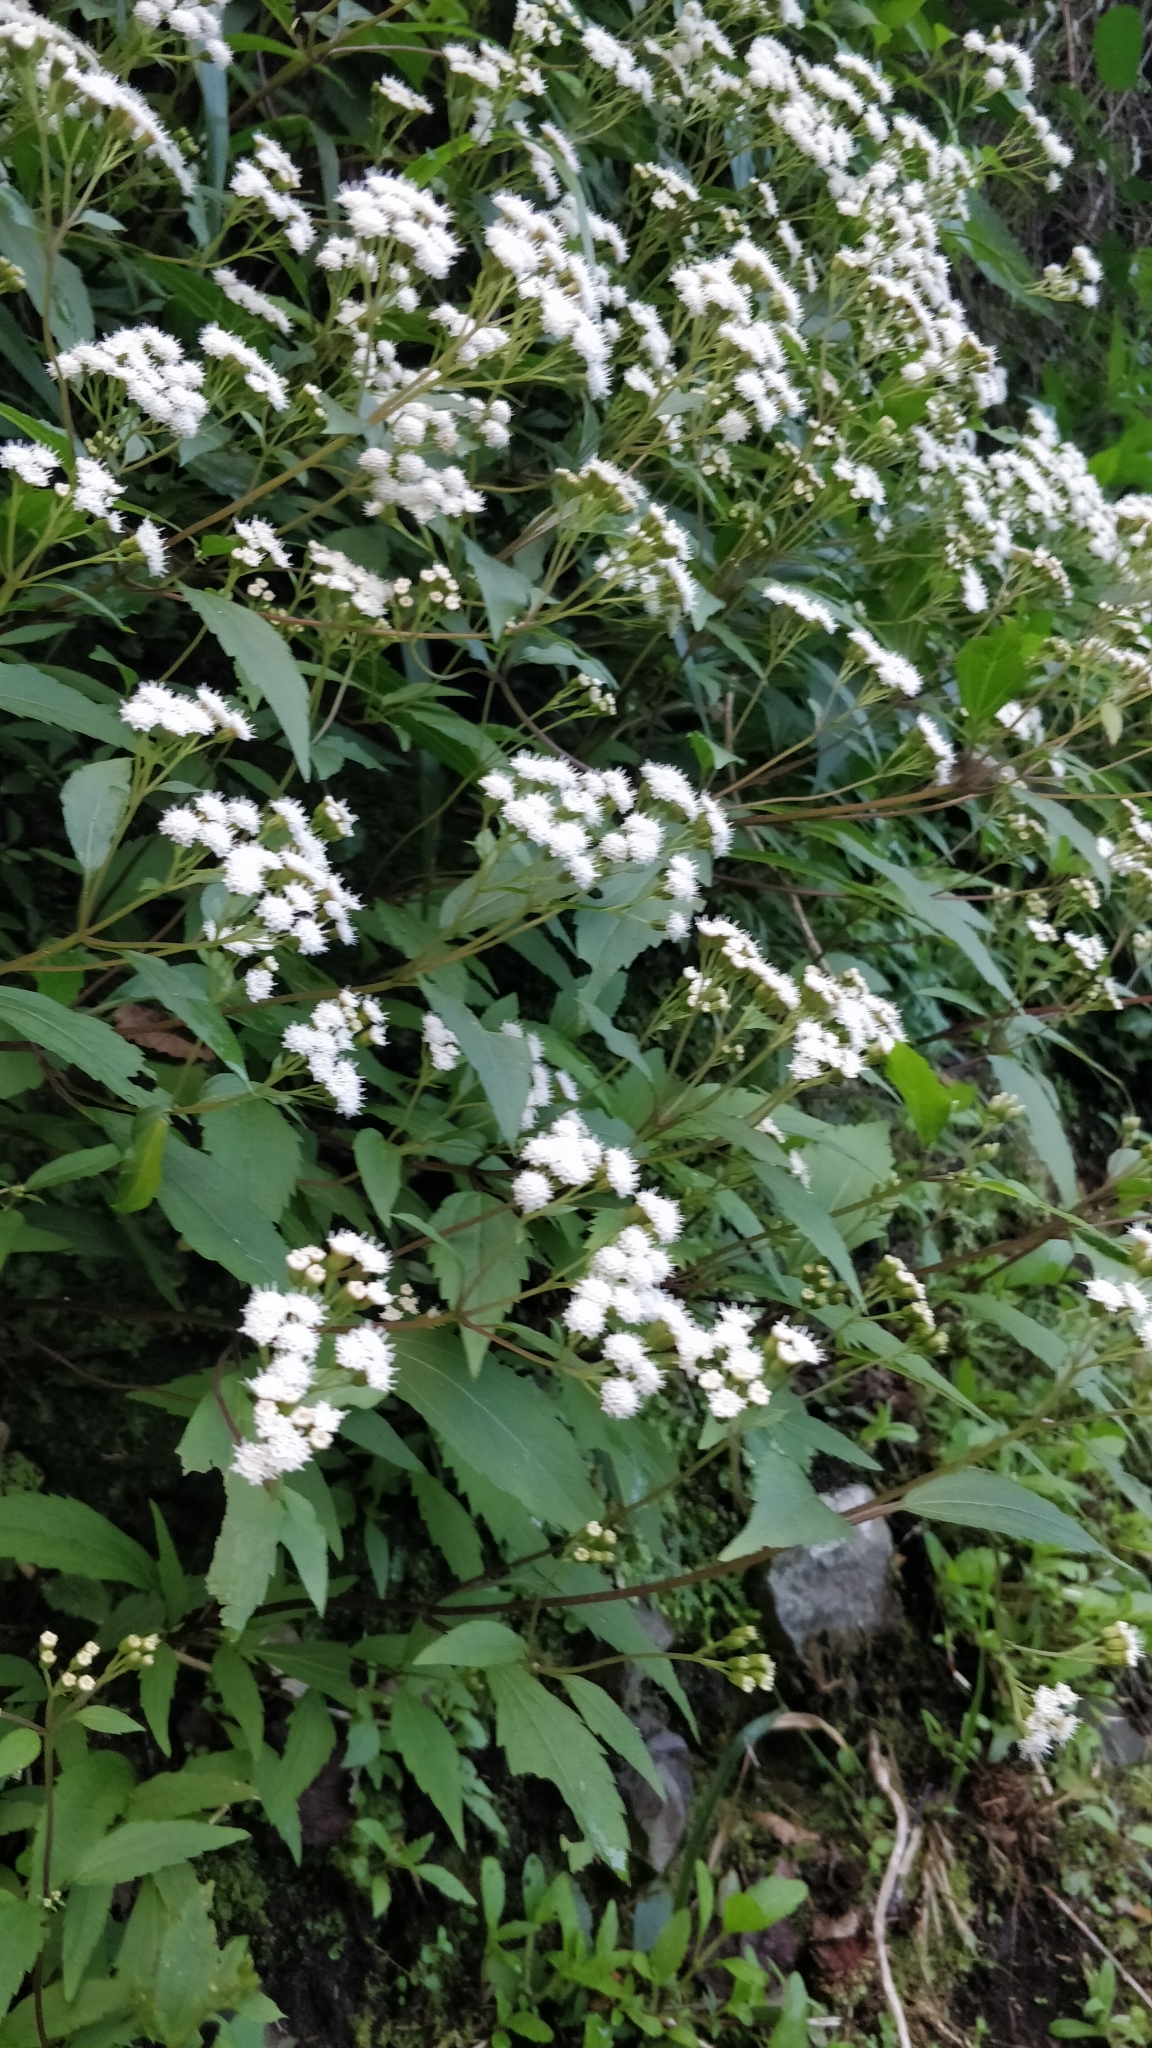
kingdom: Plantae
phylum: Tracheophyta
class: Magnoliopsida
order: Asterales
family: Asteraceae
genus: Ageratina
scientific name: Ageratina riparia
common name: Creeping croftonweed
